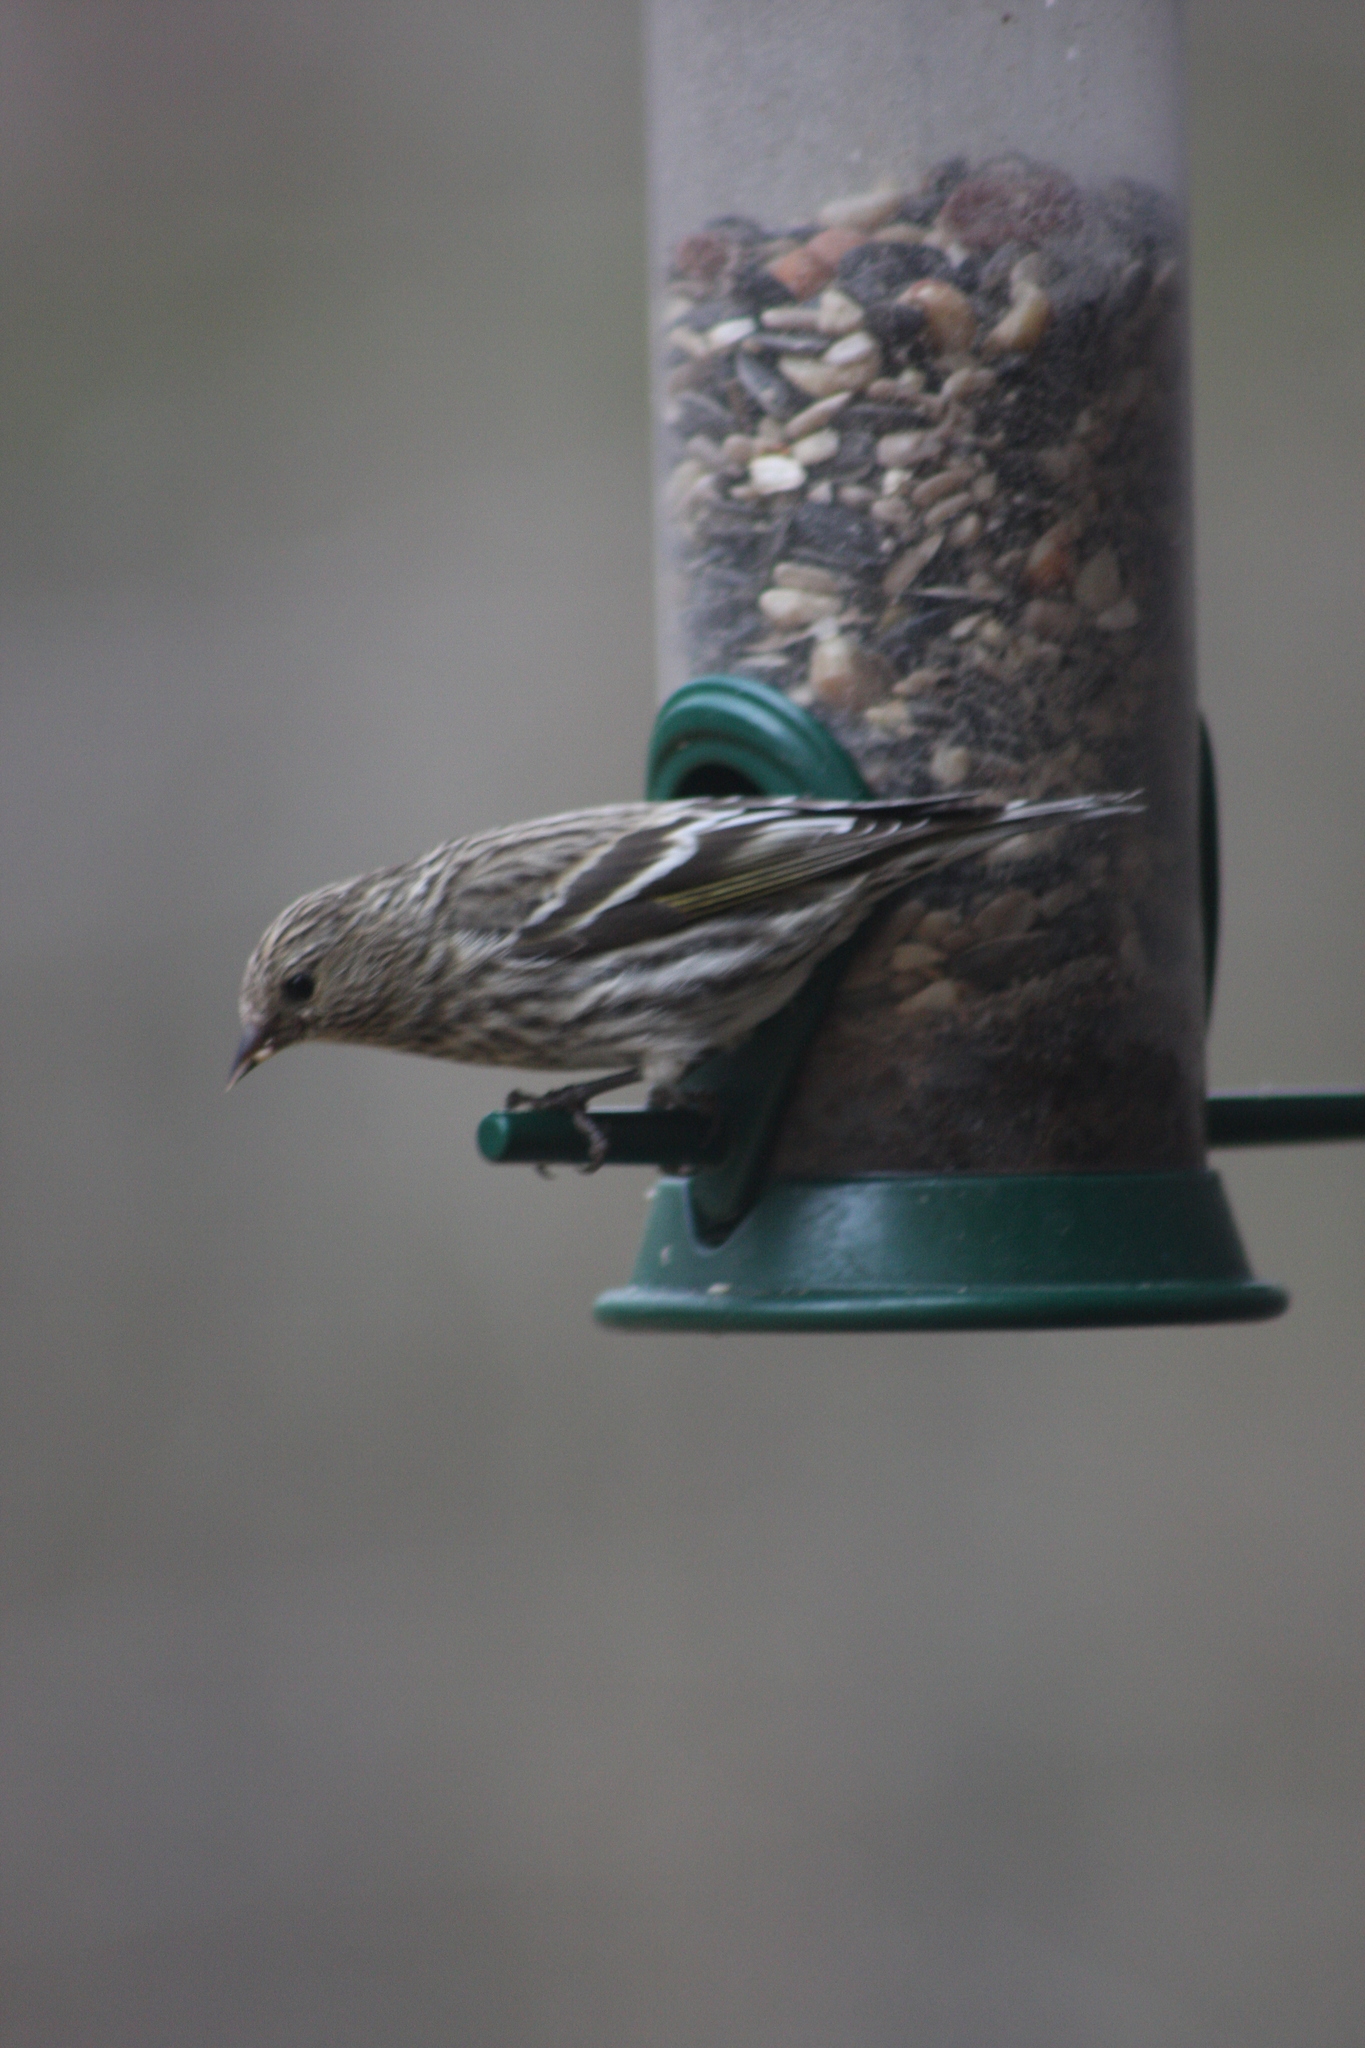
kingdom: Animalia
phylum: Chordata
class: Aves
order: Passeriformes
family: Fringillidae
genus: Spinus
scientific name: Spinus pinus
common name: Pine siskin
